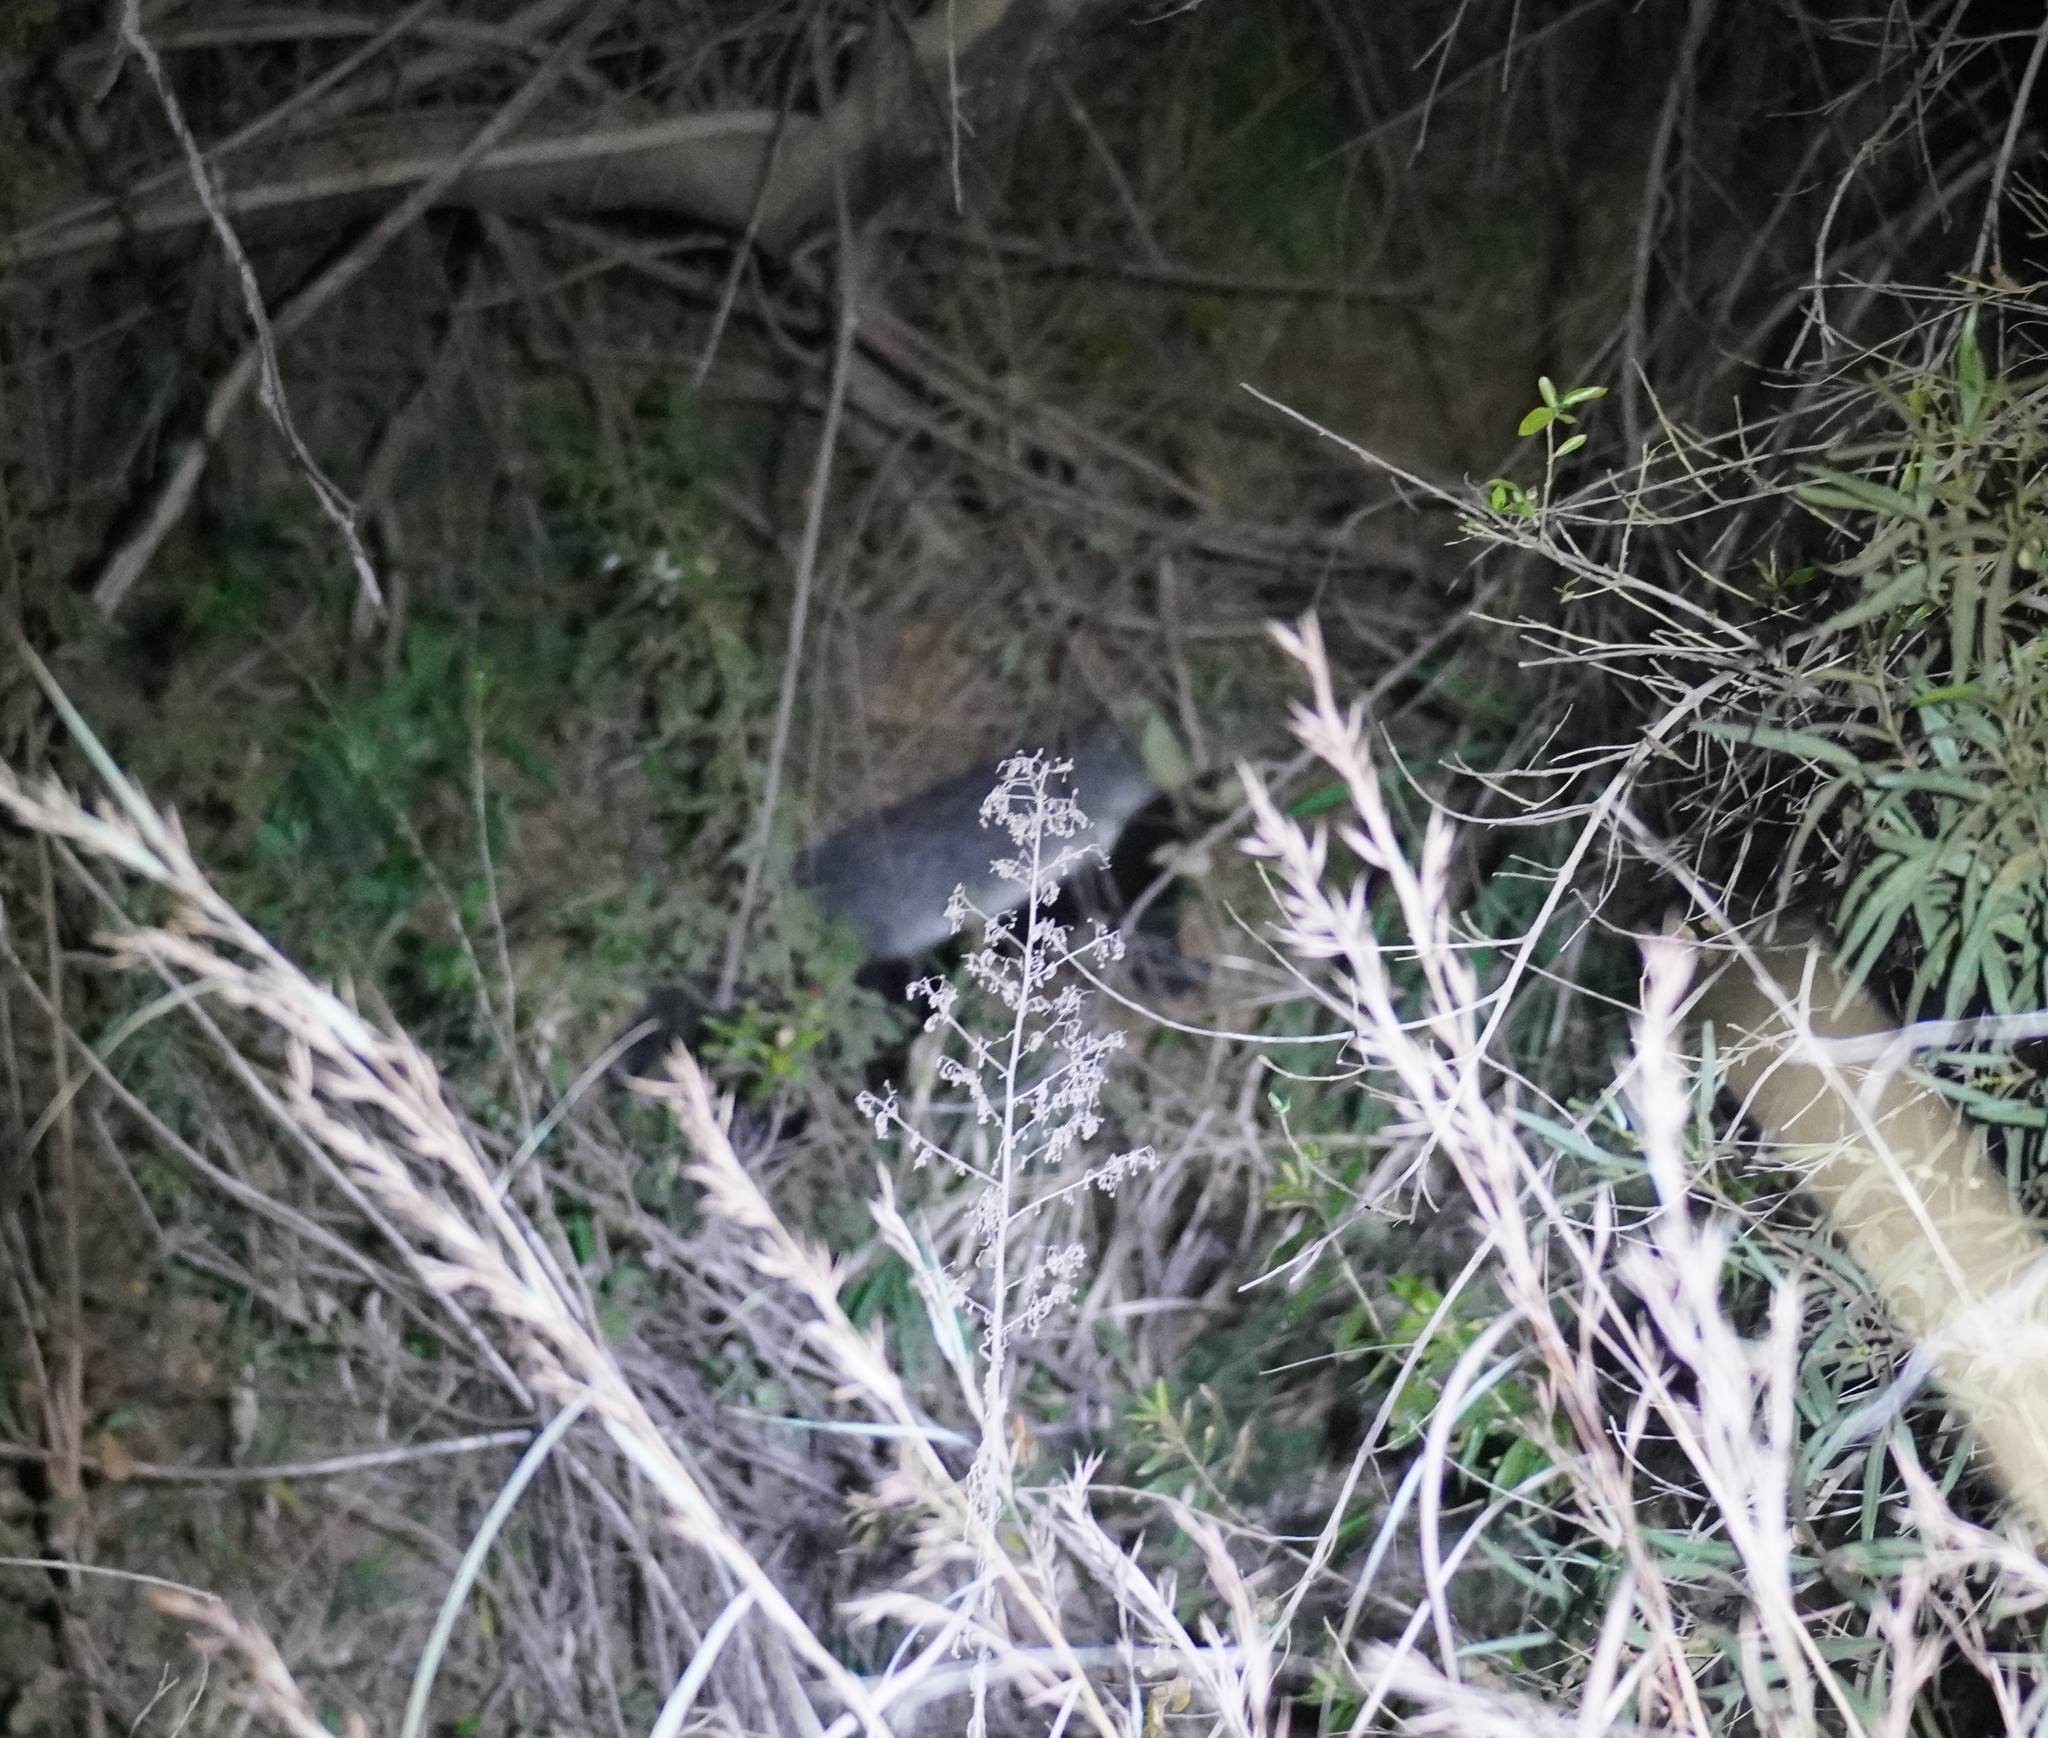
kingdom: Animalia
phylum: Chordata
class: Mammalia
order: Carnivora
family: Mustelidae
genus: Mellivora
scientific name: Mellivora capensis
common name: Honey badger
